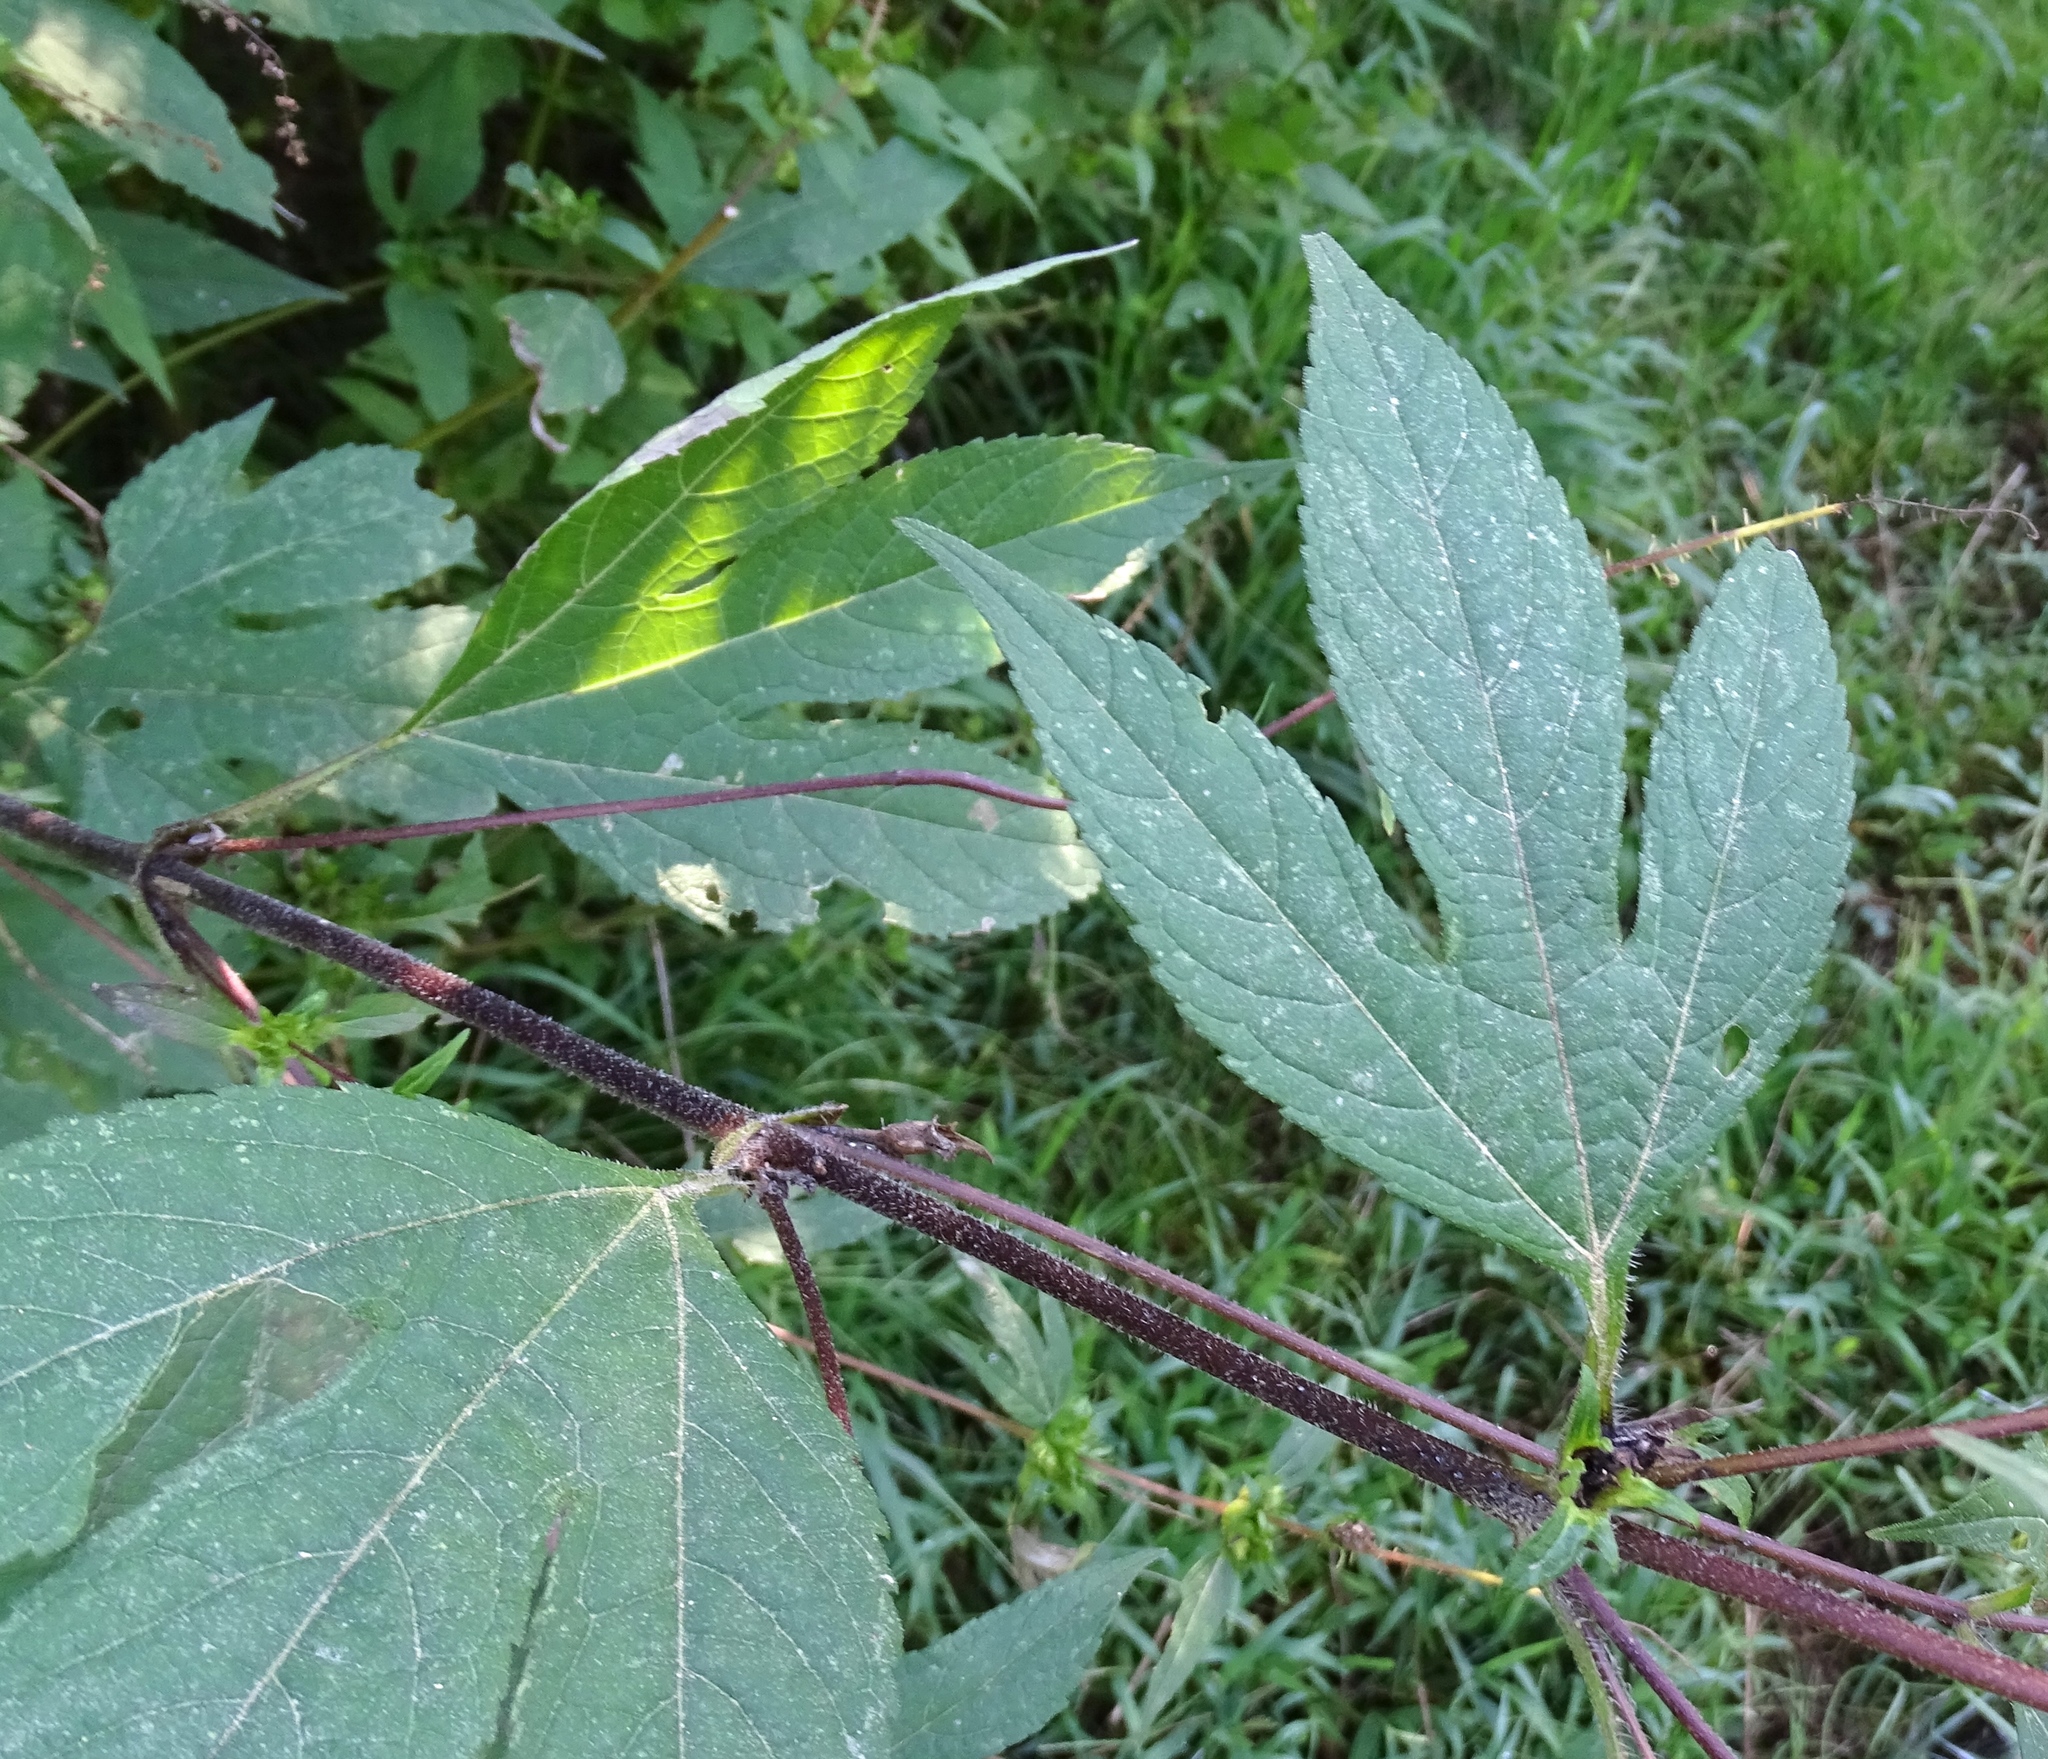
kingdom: Plantae
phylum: Tracheophyta
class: Magnoliopsida
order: Asterales
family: Asteraceae
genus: Ambrosia
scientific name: Ambrosia trifida
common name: Giant ragweed
